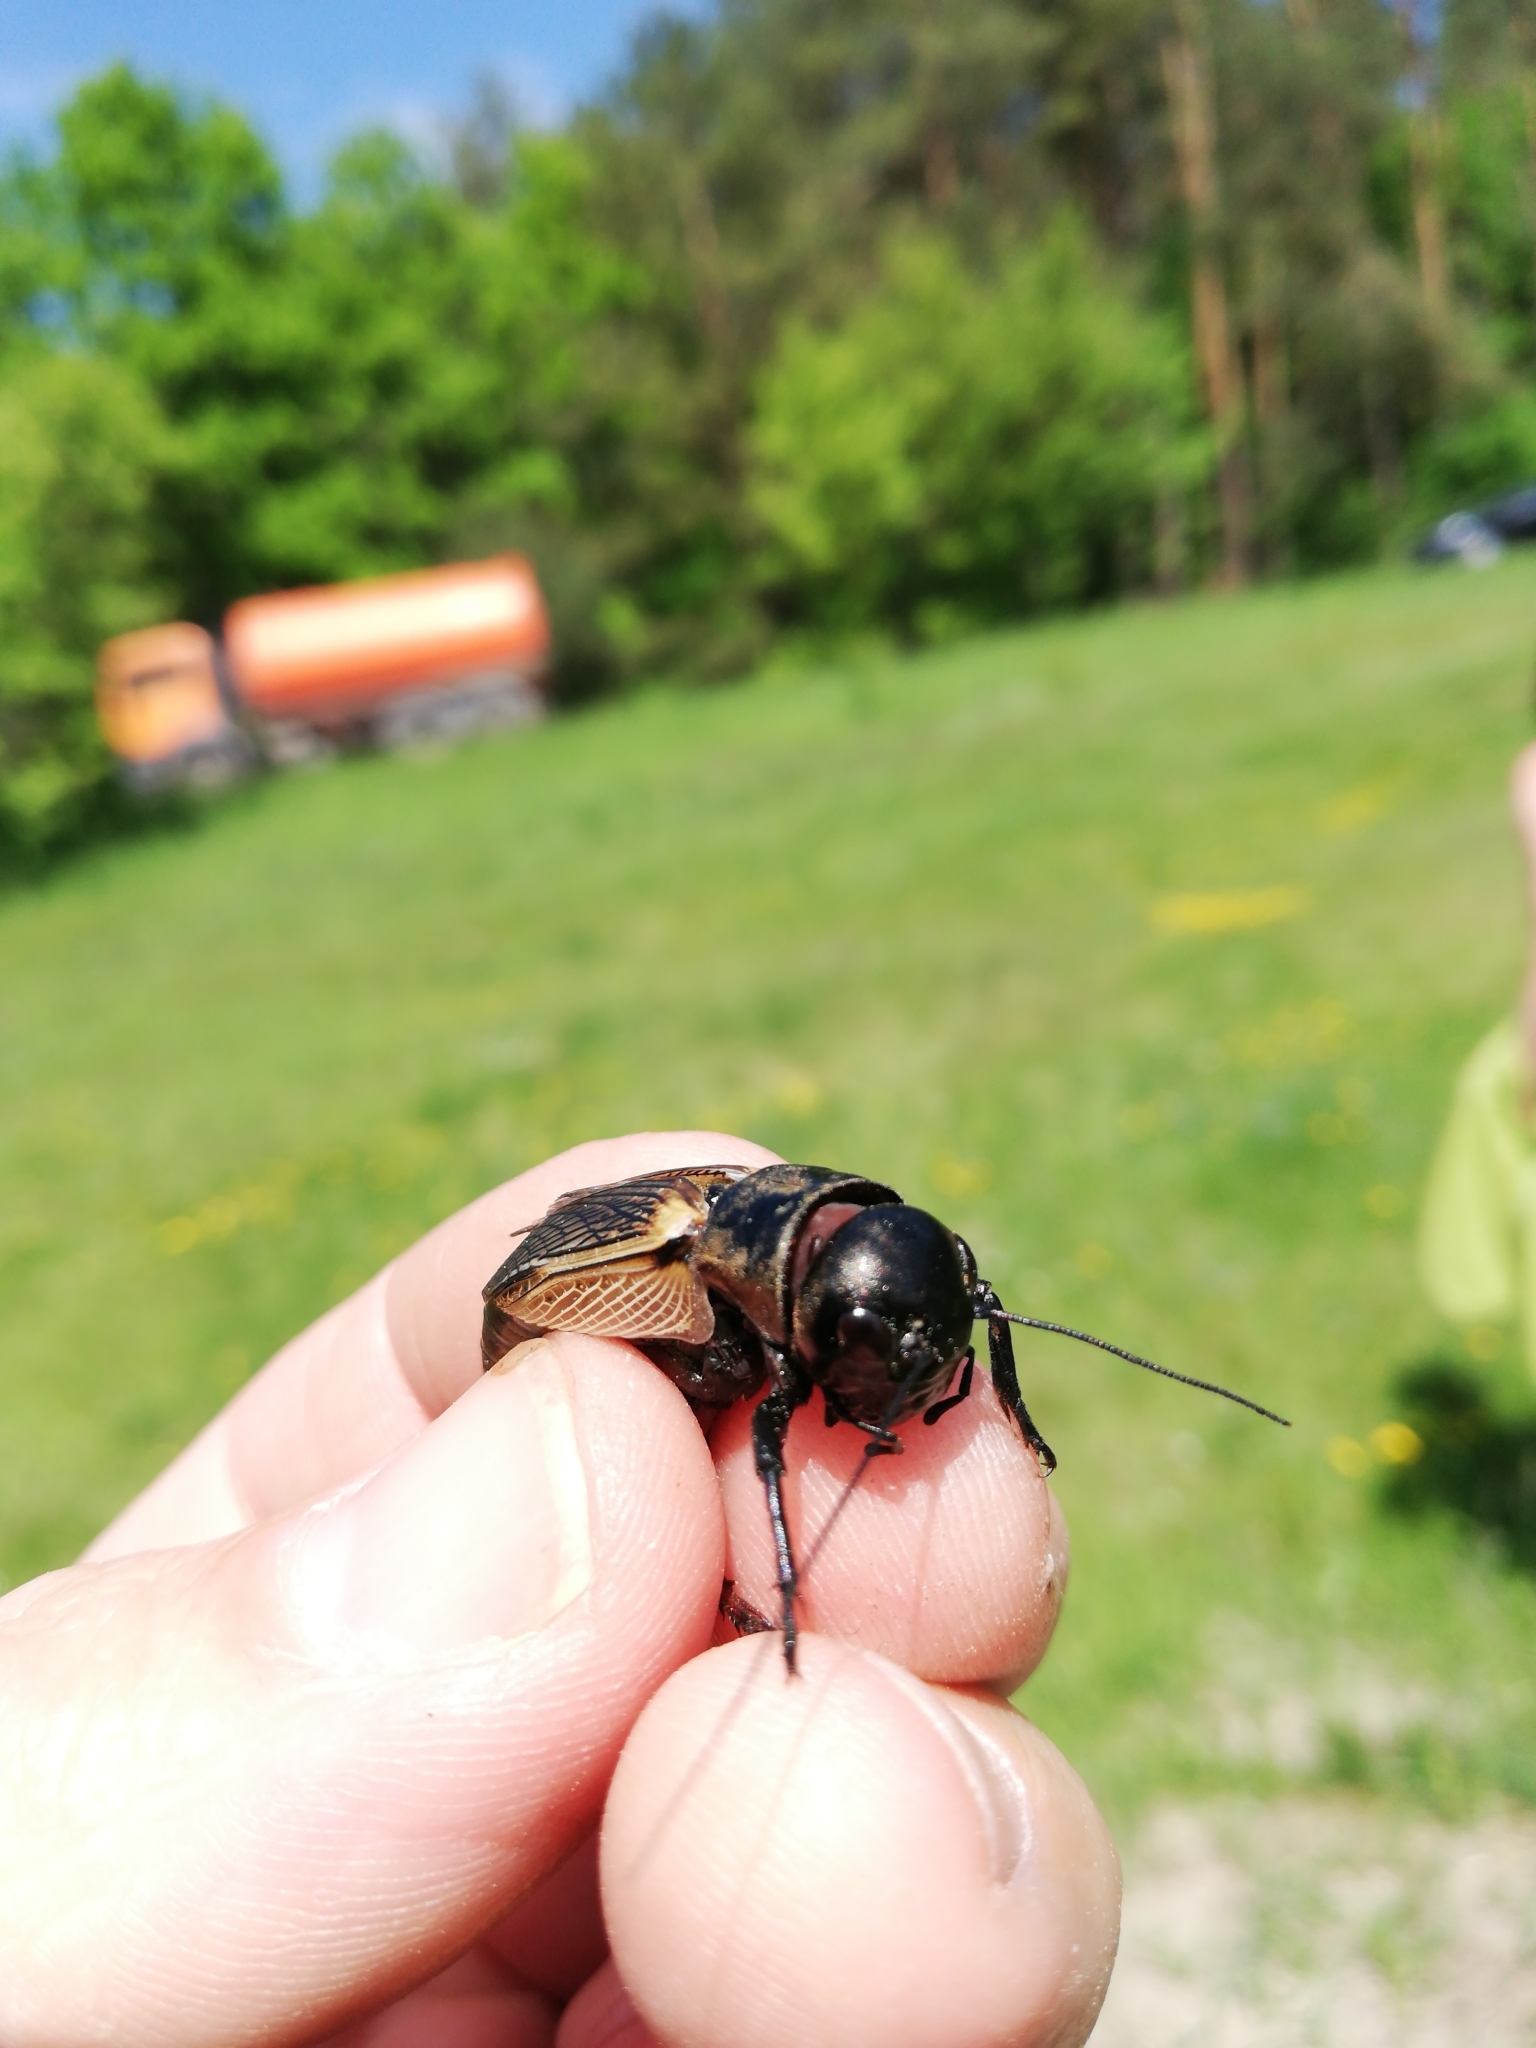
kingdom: Animalia
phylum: Arthropoda
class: Insecta
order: Orthoptera
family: Gryllidae
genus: Gryllus
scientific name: Gryllus campestris
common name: Field cricket
